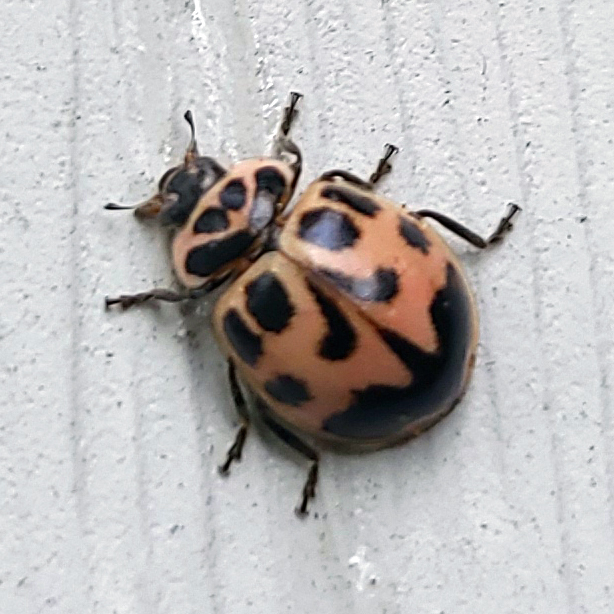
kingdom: Animalia
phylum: Arthropoda
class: Insecta
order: Coleoptera
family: Coccinellidae
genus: Neoharmonia
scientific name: Neoharmonia venusta
